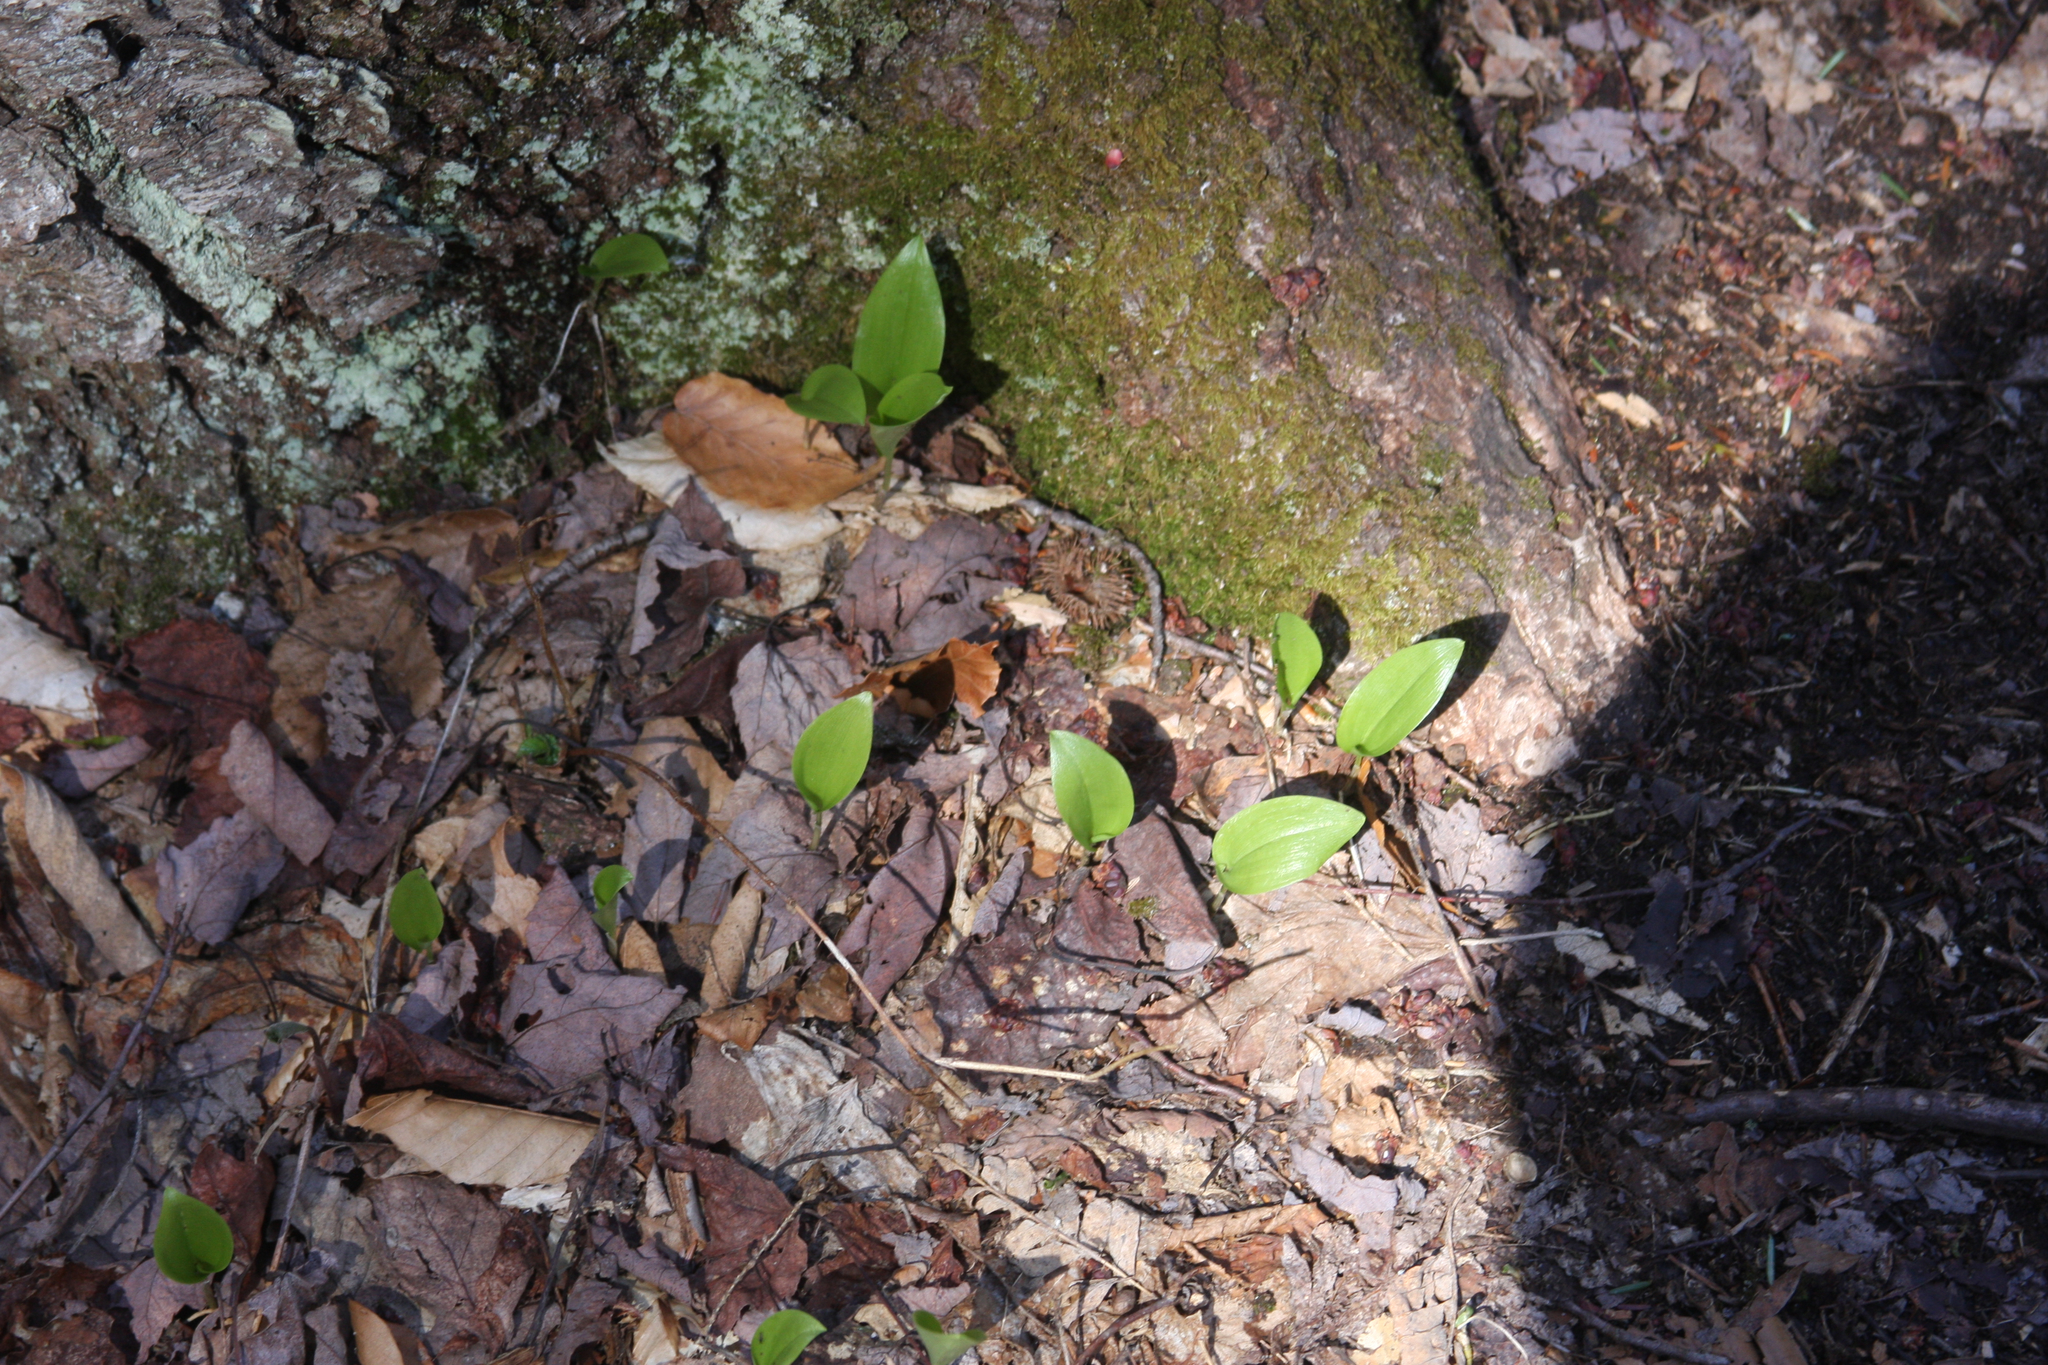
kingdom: Plantae
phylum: Tracheophyta
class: Liliopsida
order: Asparagales
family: Asparagaceae
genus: Maianthemum
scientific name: Maianthemum canadense
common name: False lily-of-the-valley
